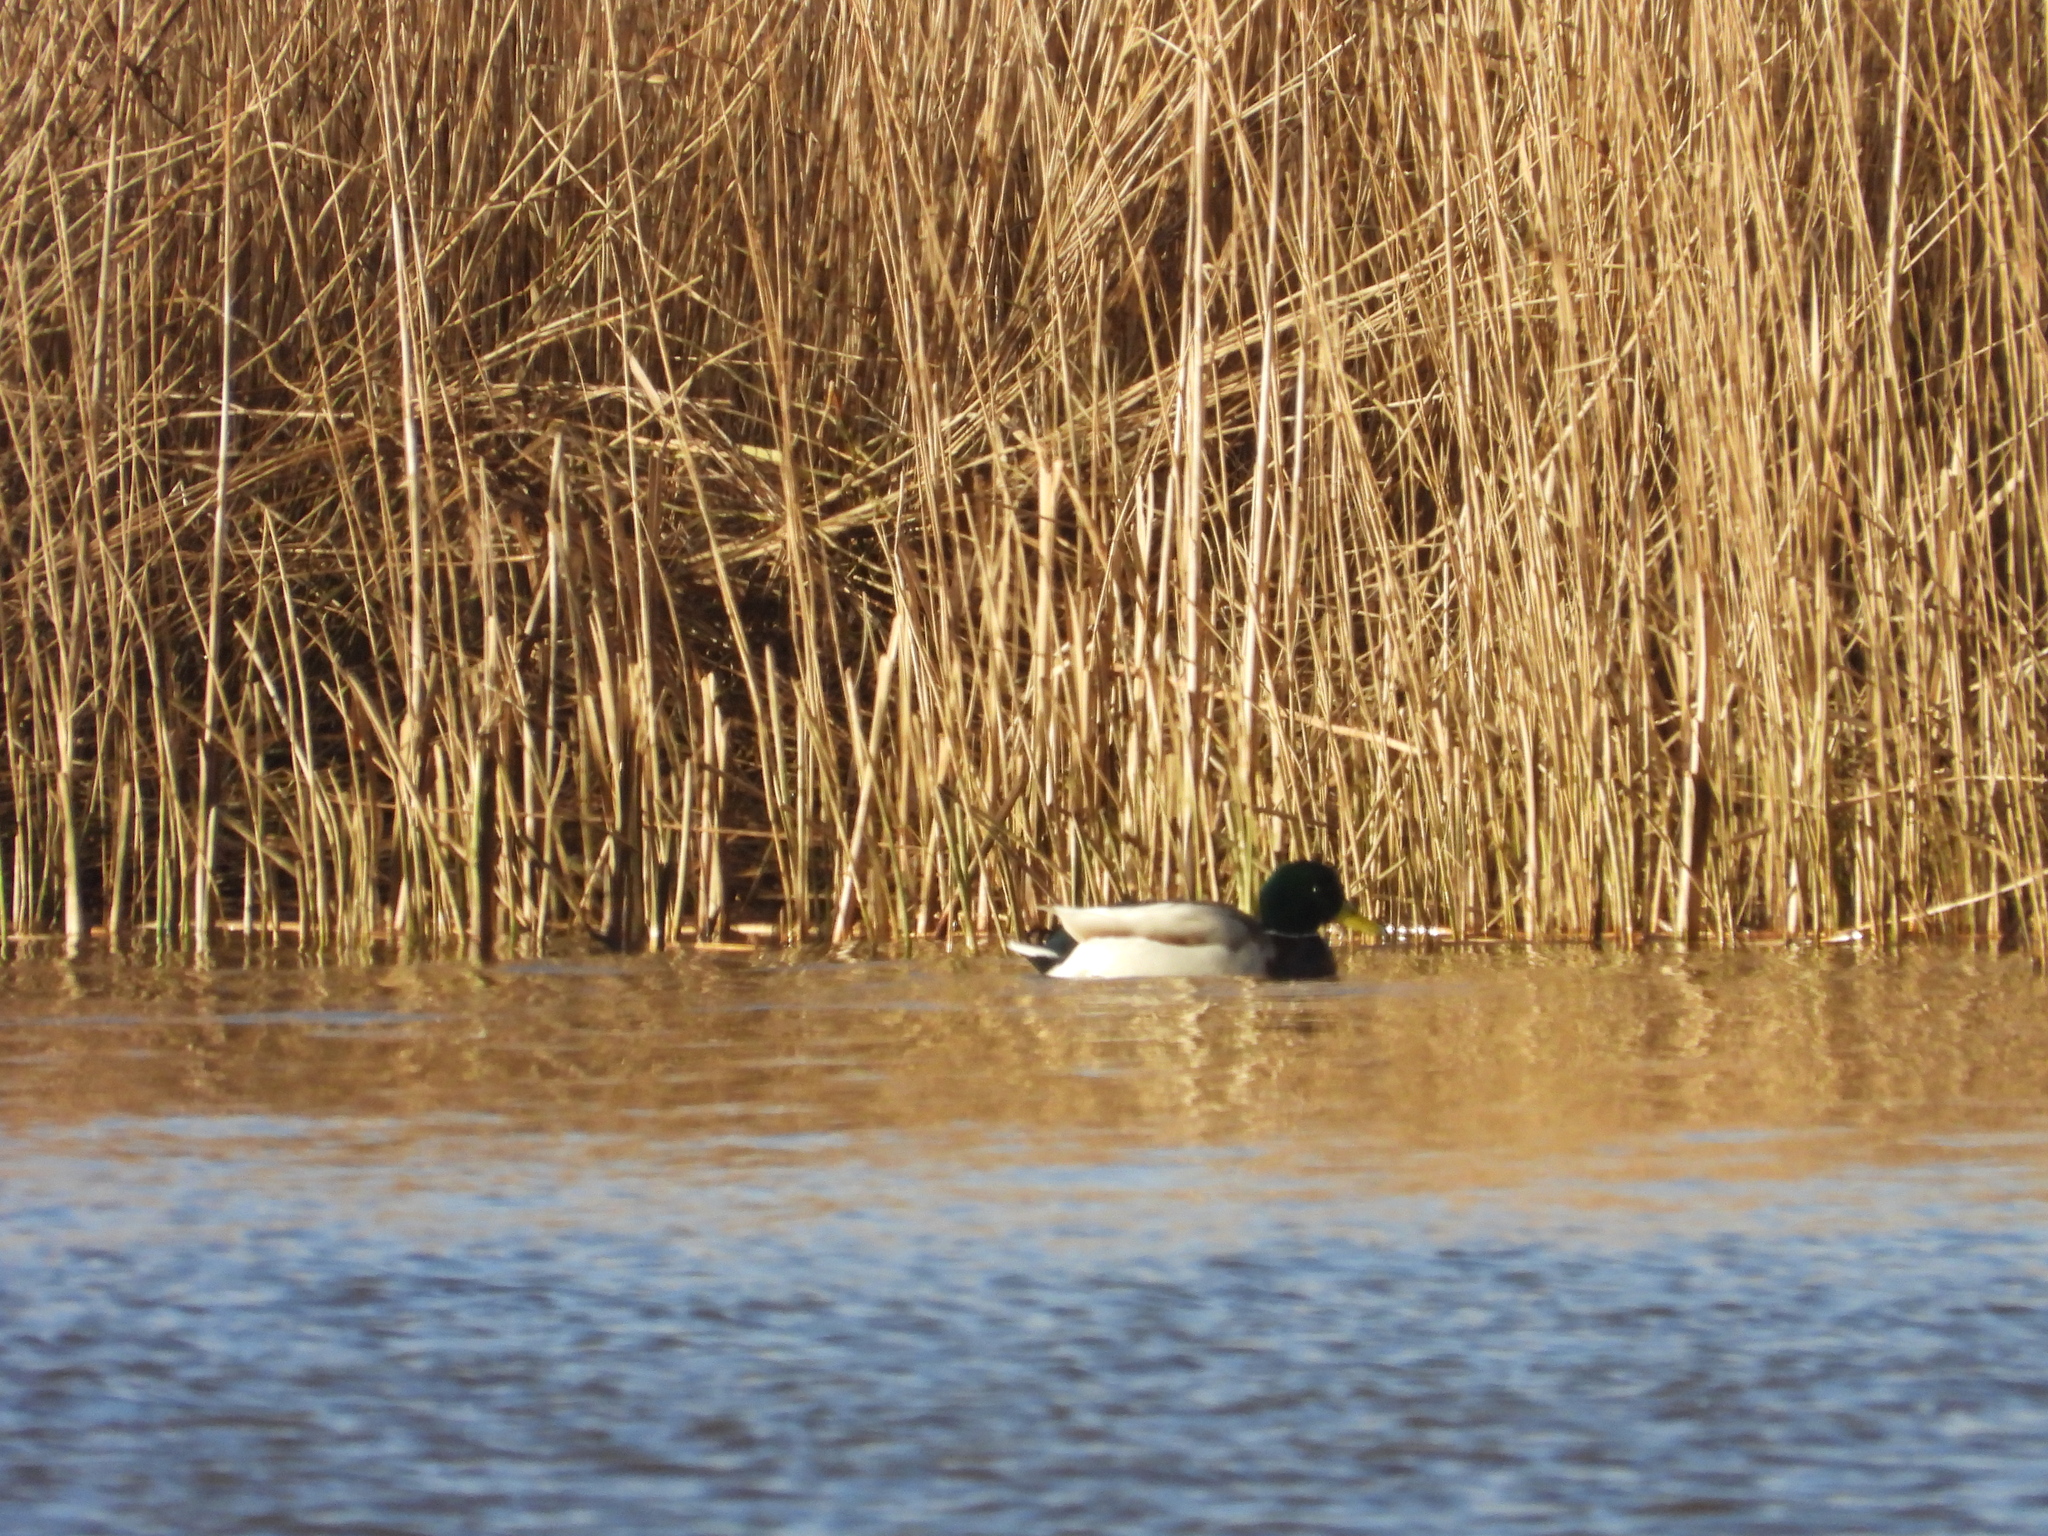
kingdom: Animalia
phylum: Chordata
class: Aves
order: Anseriformes
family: Anatidae
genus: Anas
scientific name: Anas platyrhynchos
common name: Mallard
